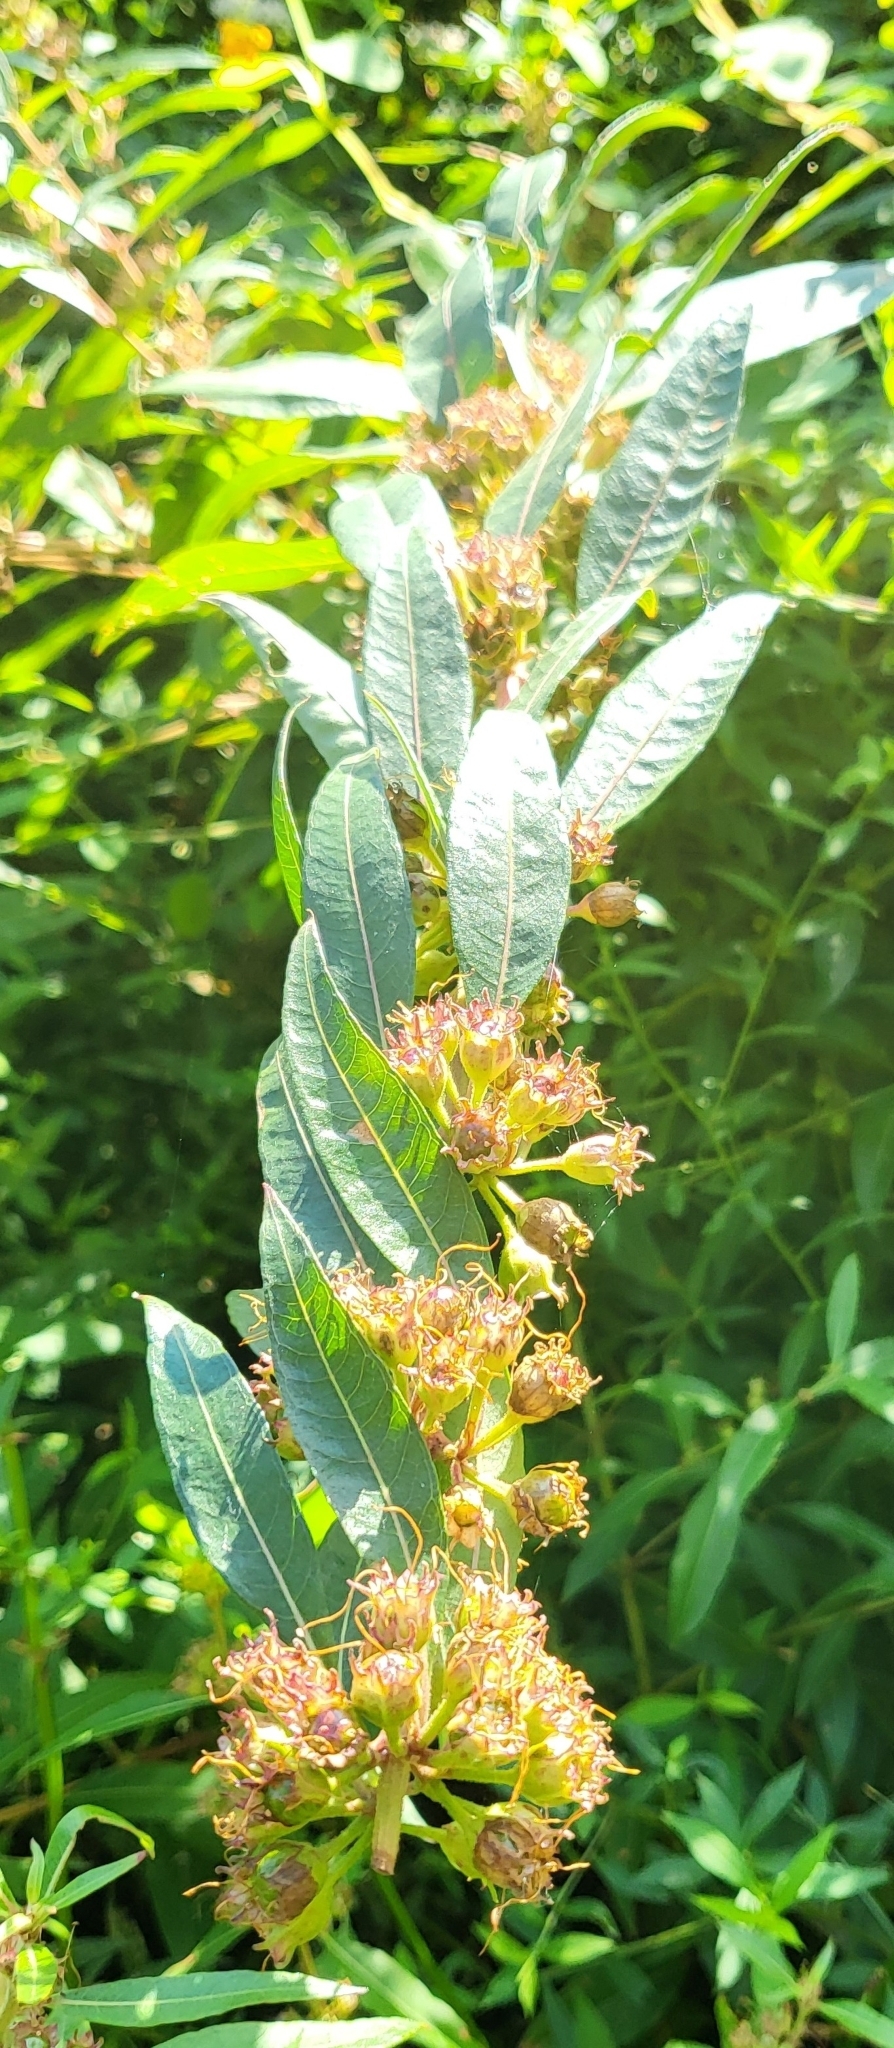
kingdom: Plantae
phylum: Tracheophyta
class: Magnoliopsida
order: Myrtales
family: Lythraceae
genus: Decodon
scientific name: Decodon verticillatus
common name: Hairy swamp loosestrife
